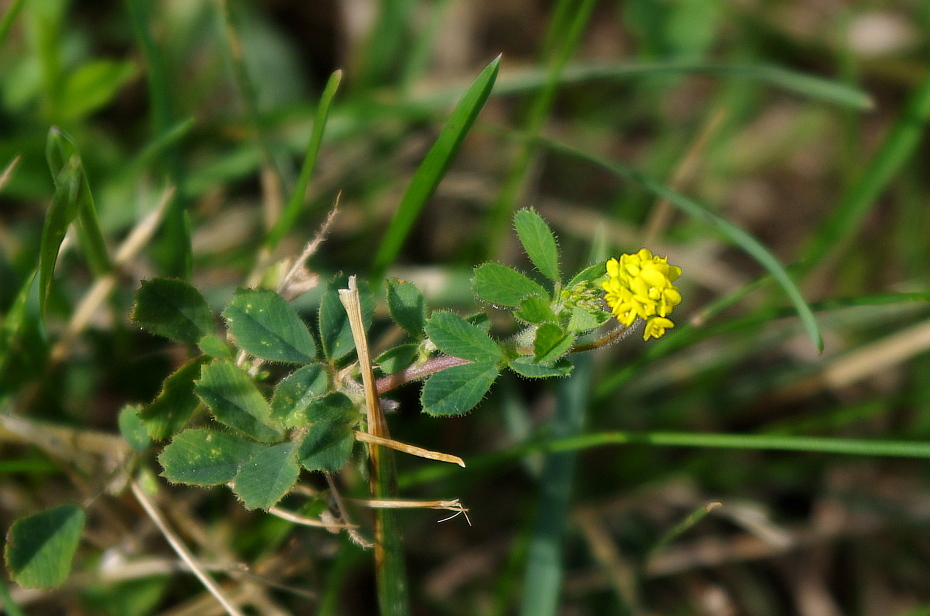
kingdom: Plantae
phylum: Tracheophyta
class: Magnoliopsida
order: Fabales
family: Fabaceae
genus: Medicago
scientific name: Medicago lupulina
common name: Black medick
